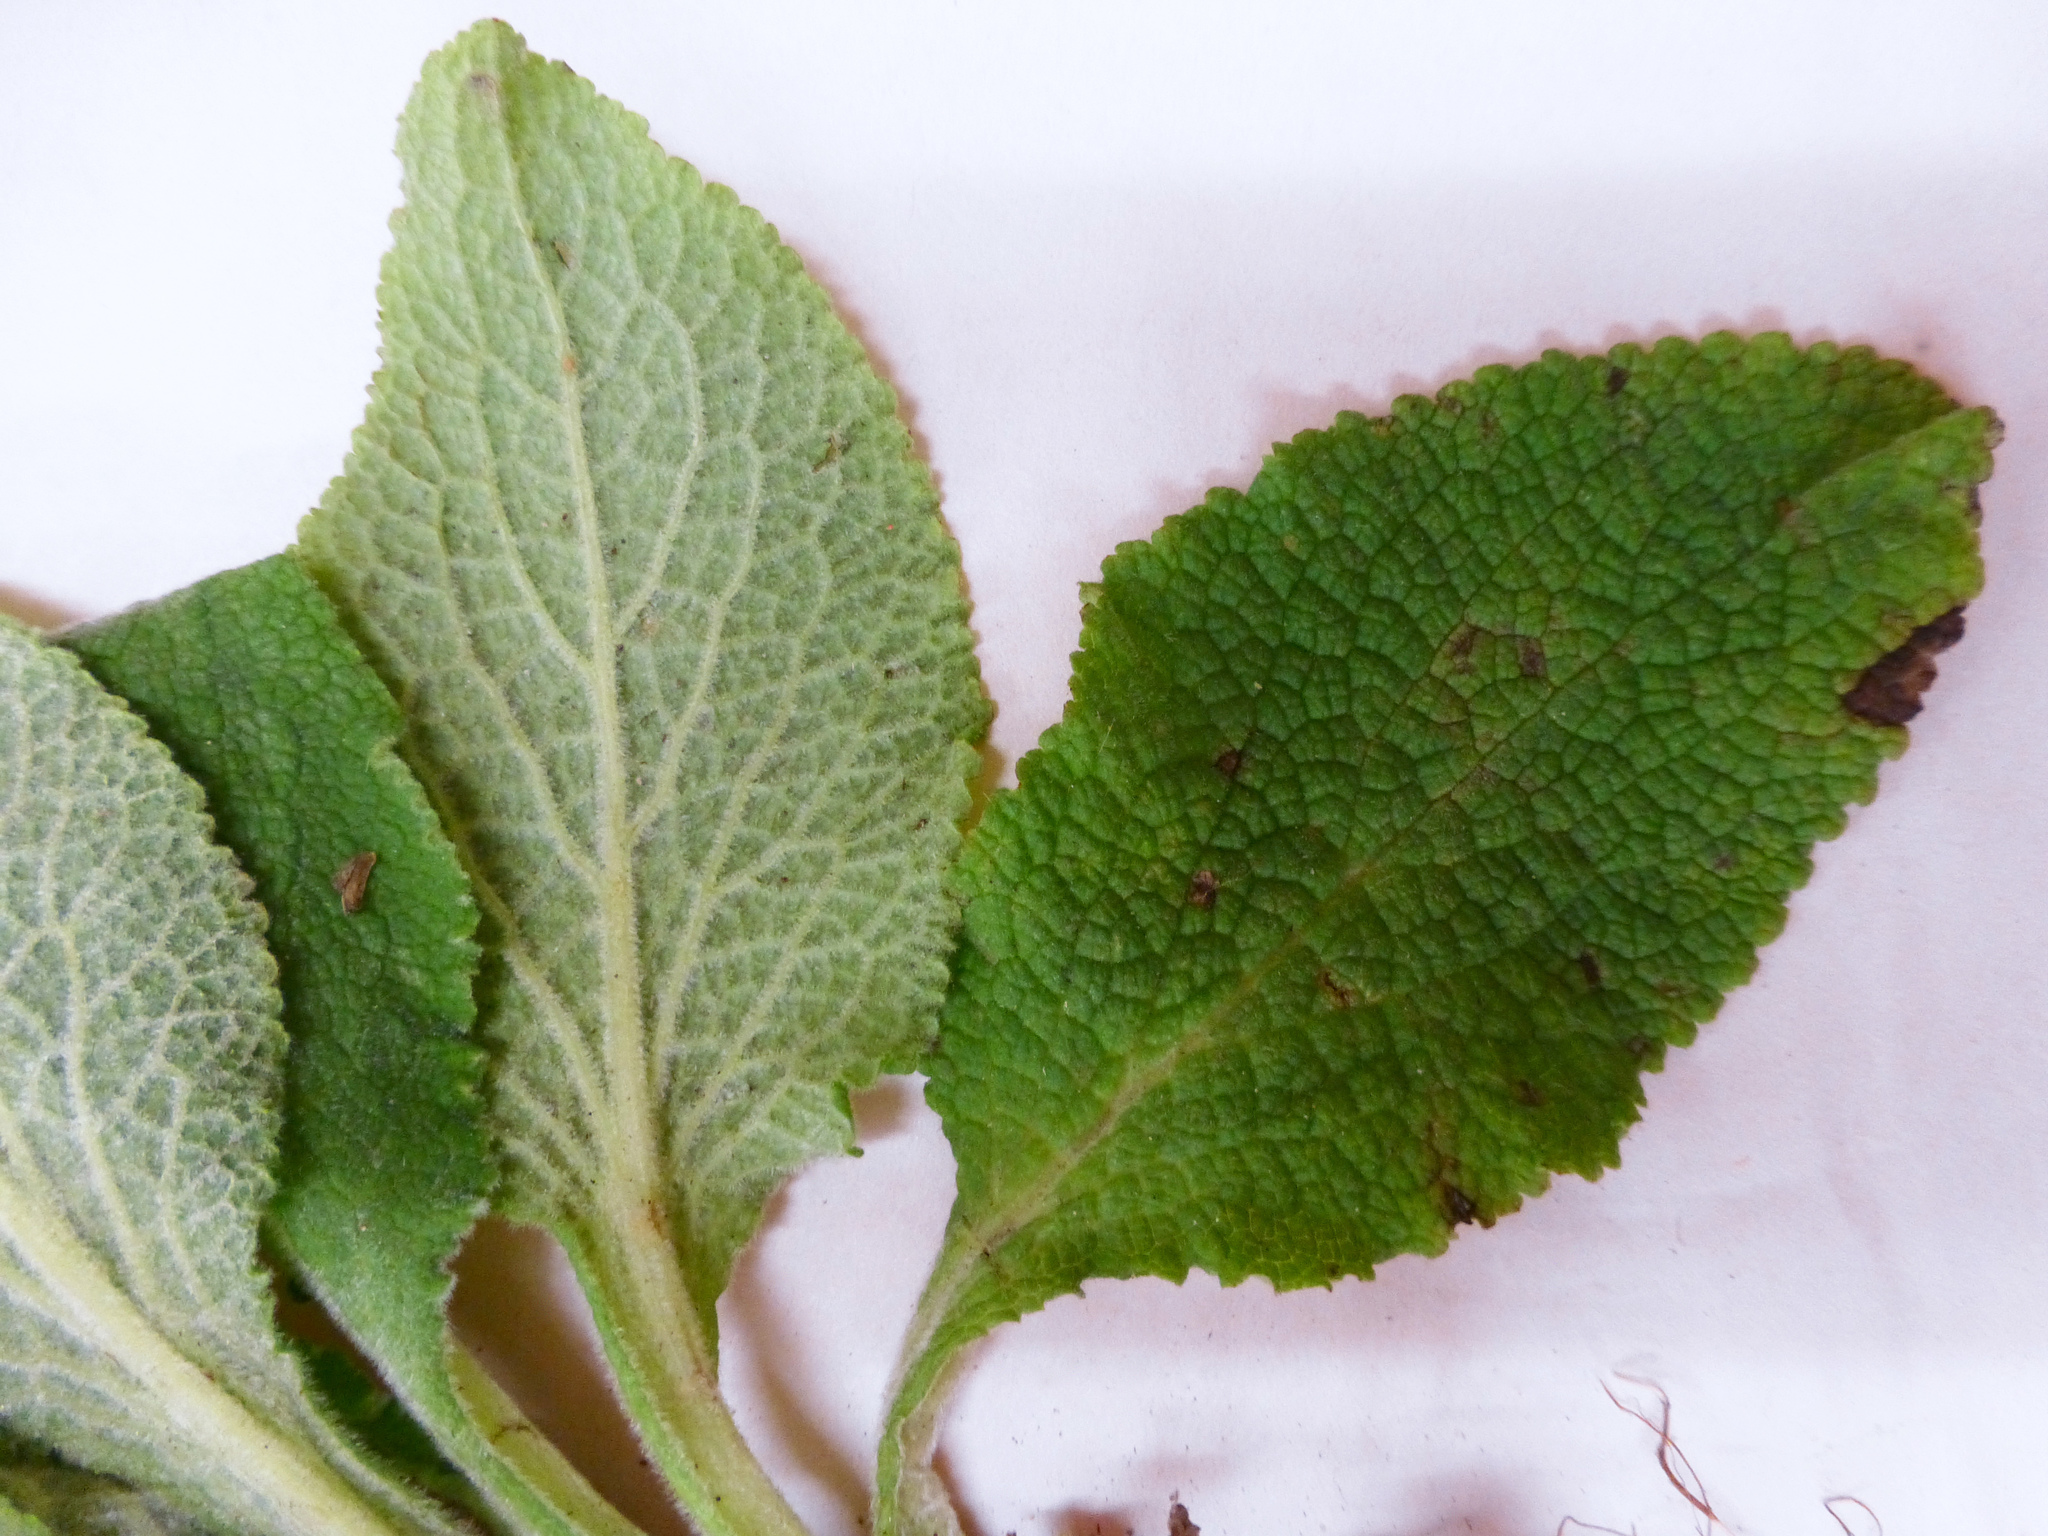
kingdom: Plantae
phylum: Tracheophyta
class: Magnoliopsida
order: Lamiales
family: Plantaginaceae
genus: Digitalis
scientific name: Digitalis purpurea
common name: Foxglove
